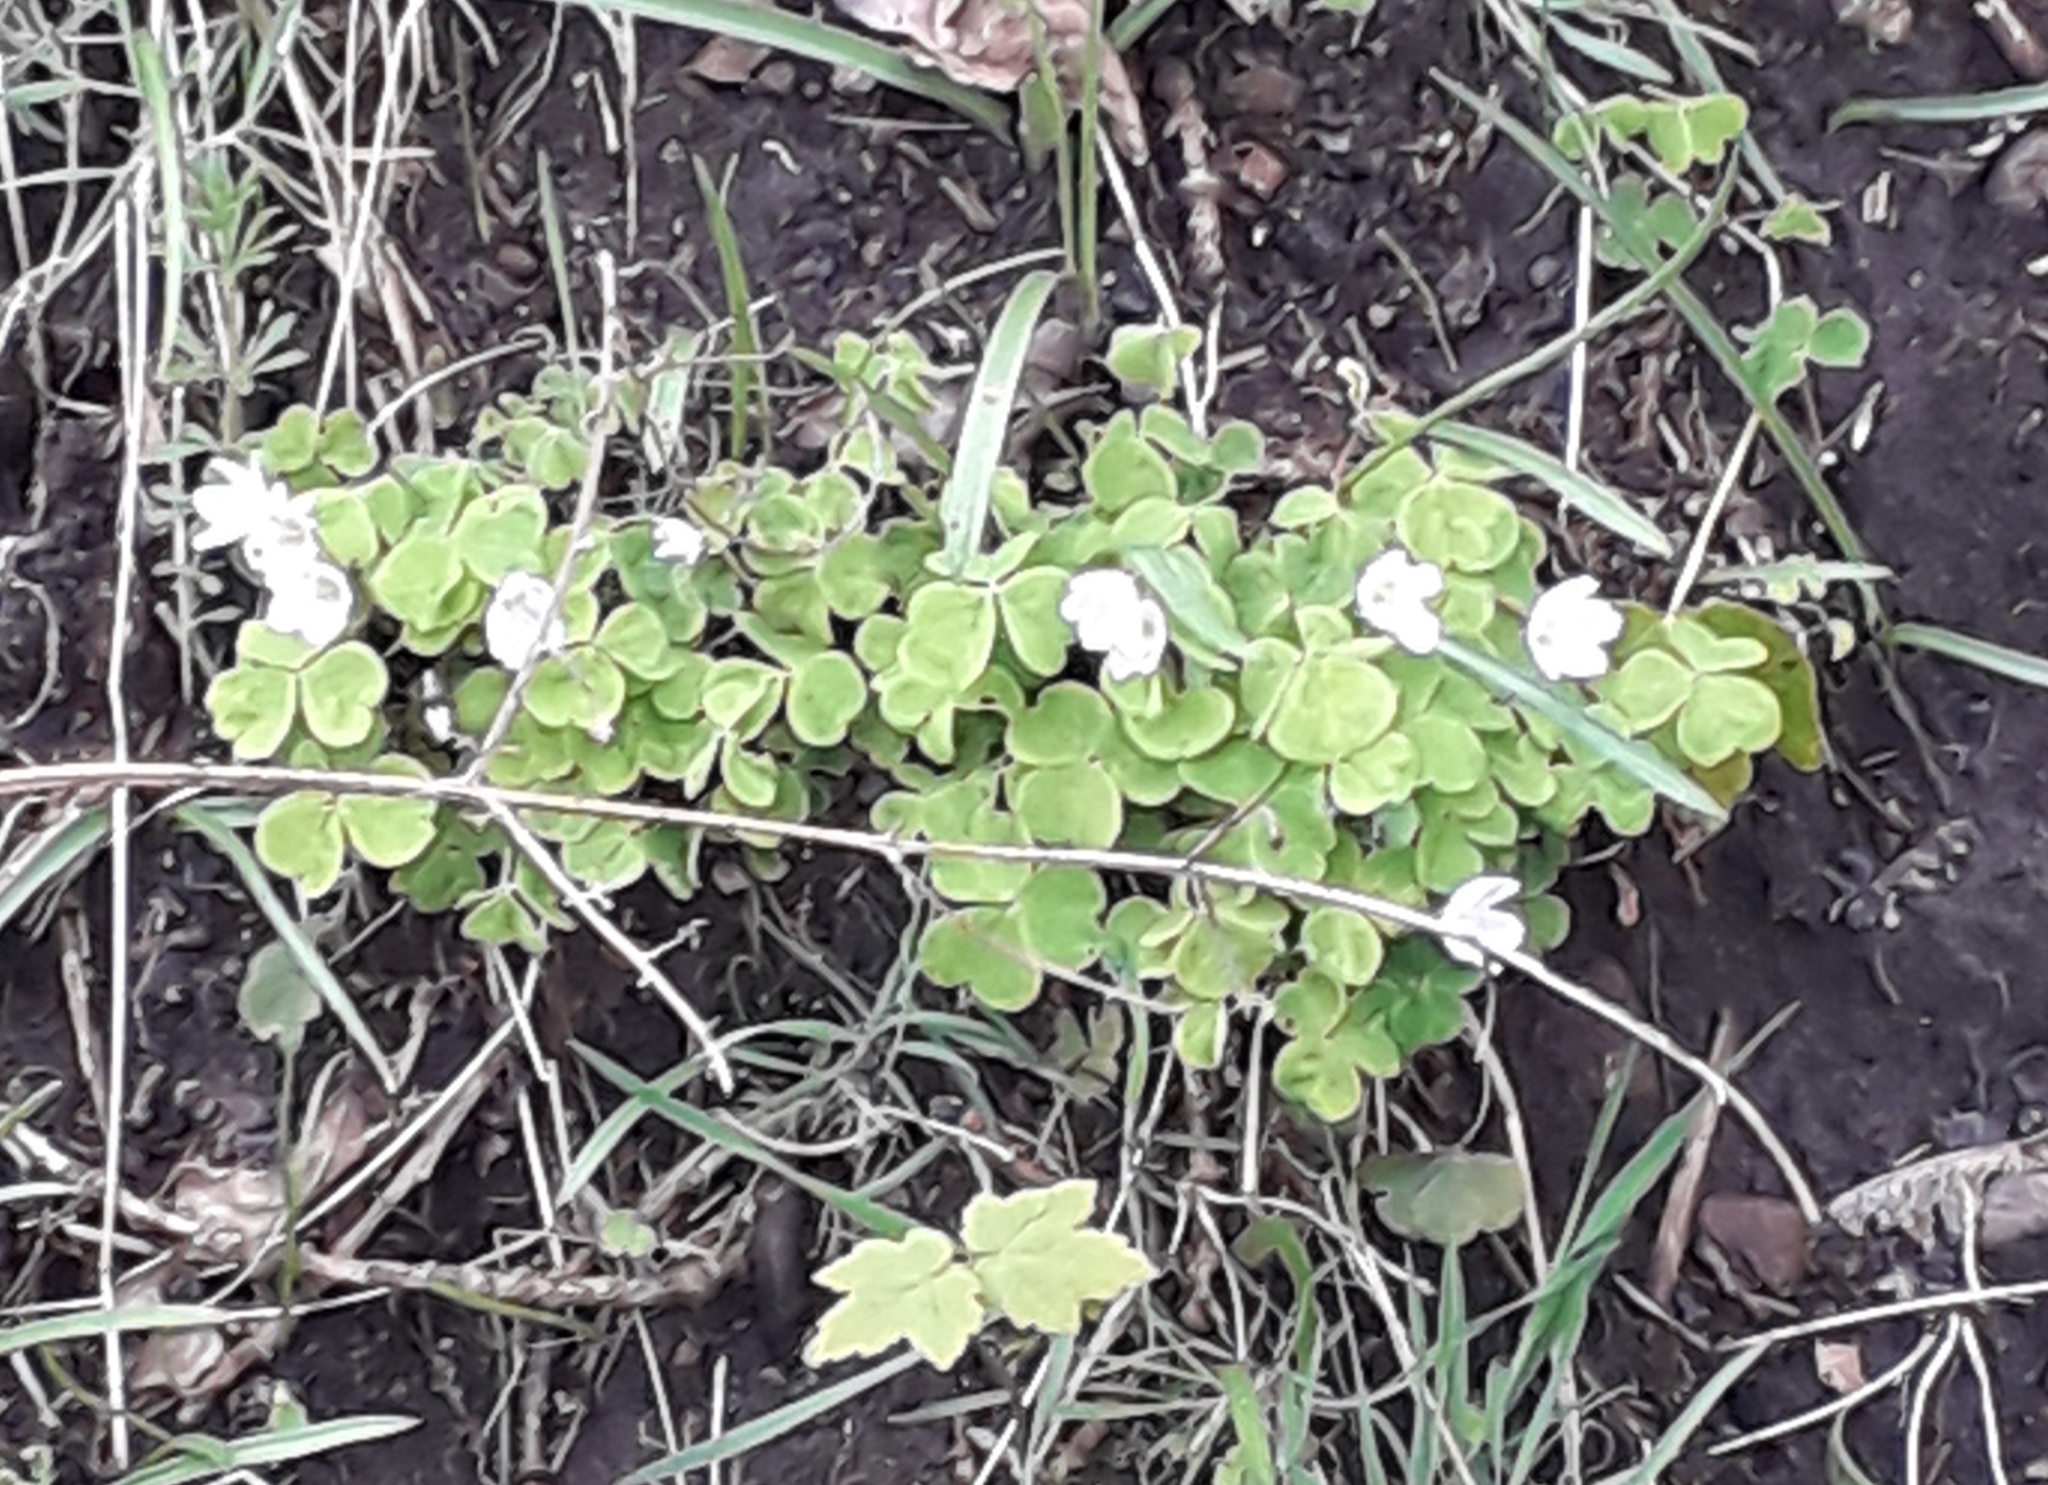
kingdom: Plantae
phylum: Tracheophyta
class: Magnoliopsida
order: Oxalidales
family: Oxalidaceae
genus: Oxalis
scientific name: Oxalis acetosella
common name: Wood-sorrel
